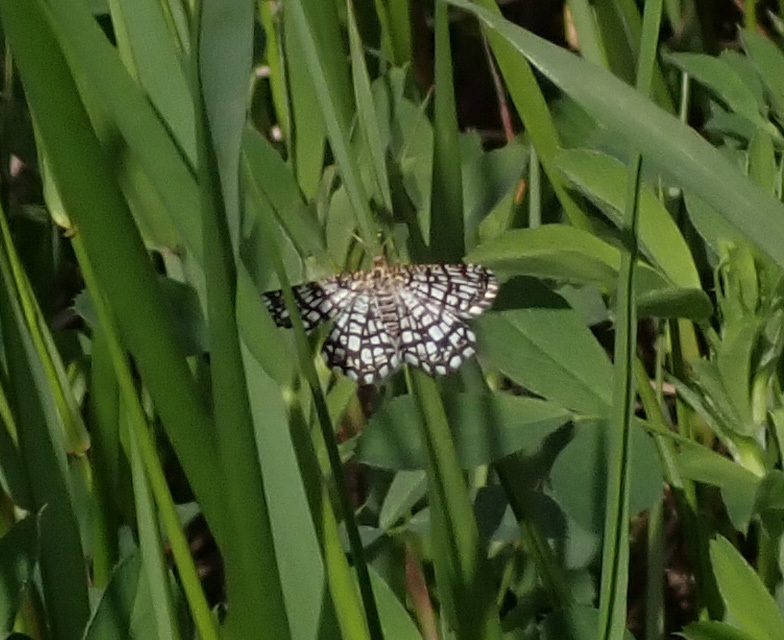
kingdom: Animalia
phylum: Arthropoda
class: Insecta
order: Lepidoptera
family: Geometridae
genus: Chiasmia
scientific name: Chiasmia clathrata
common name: Latticed heath
